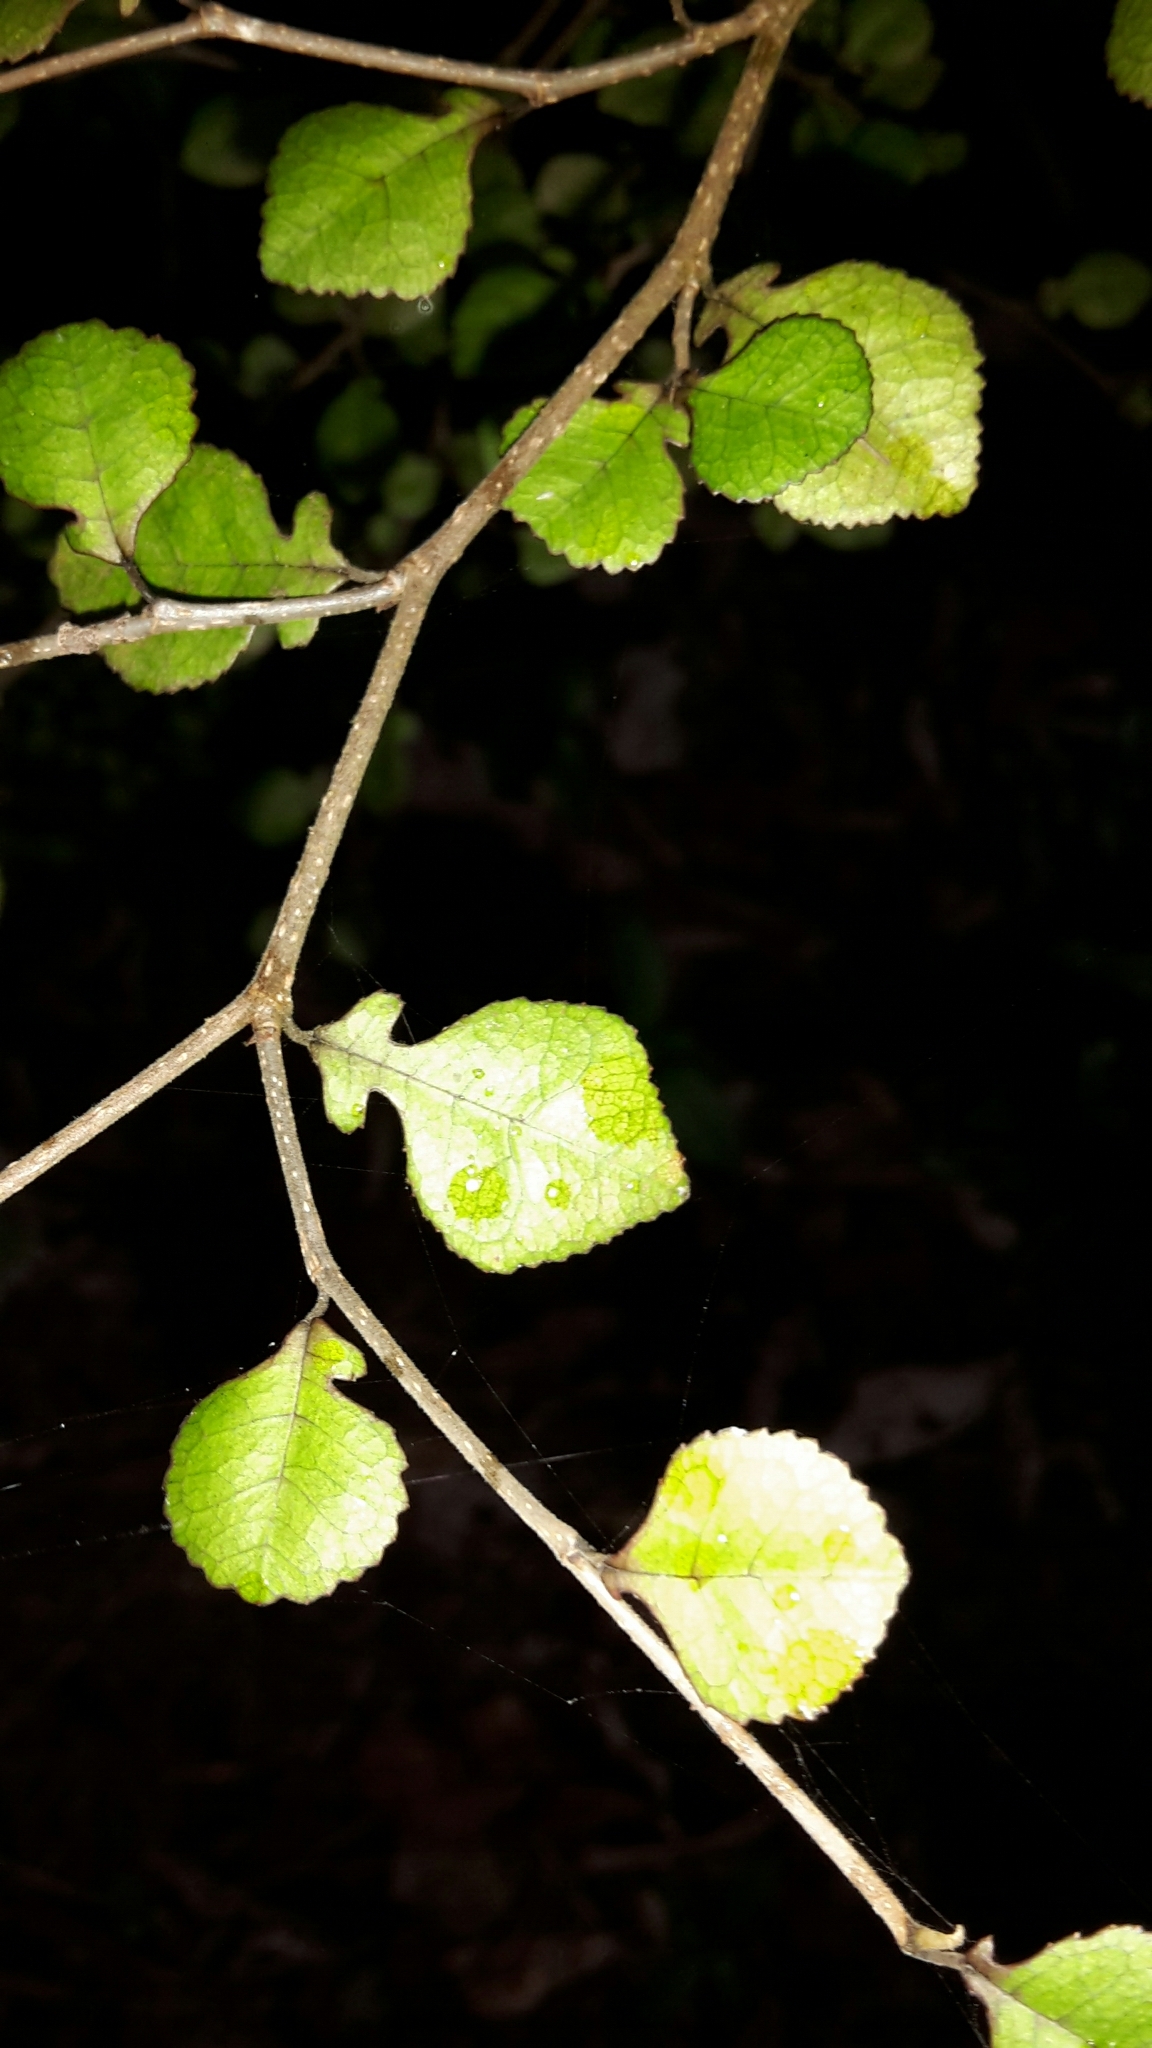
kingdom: Plantae
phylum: Tracheophyta
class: Magnoliopsida
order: Rosales
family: Moraceae
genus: Paratrophis
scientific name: Paratrophis microphylla
